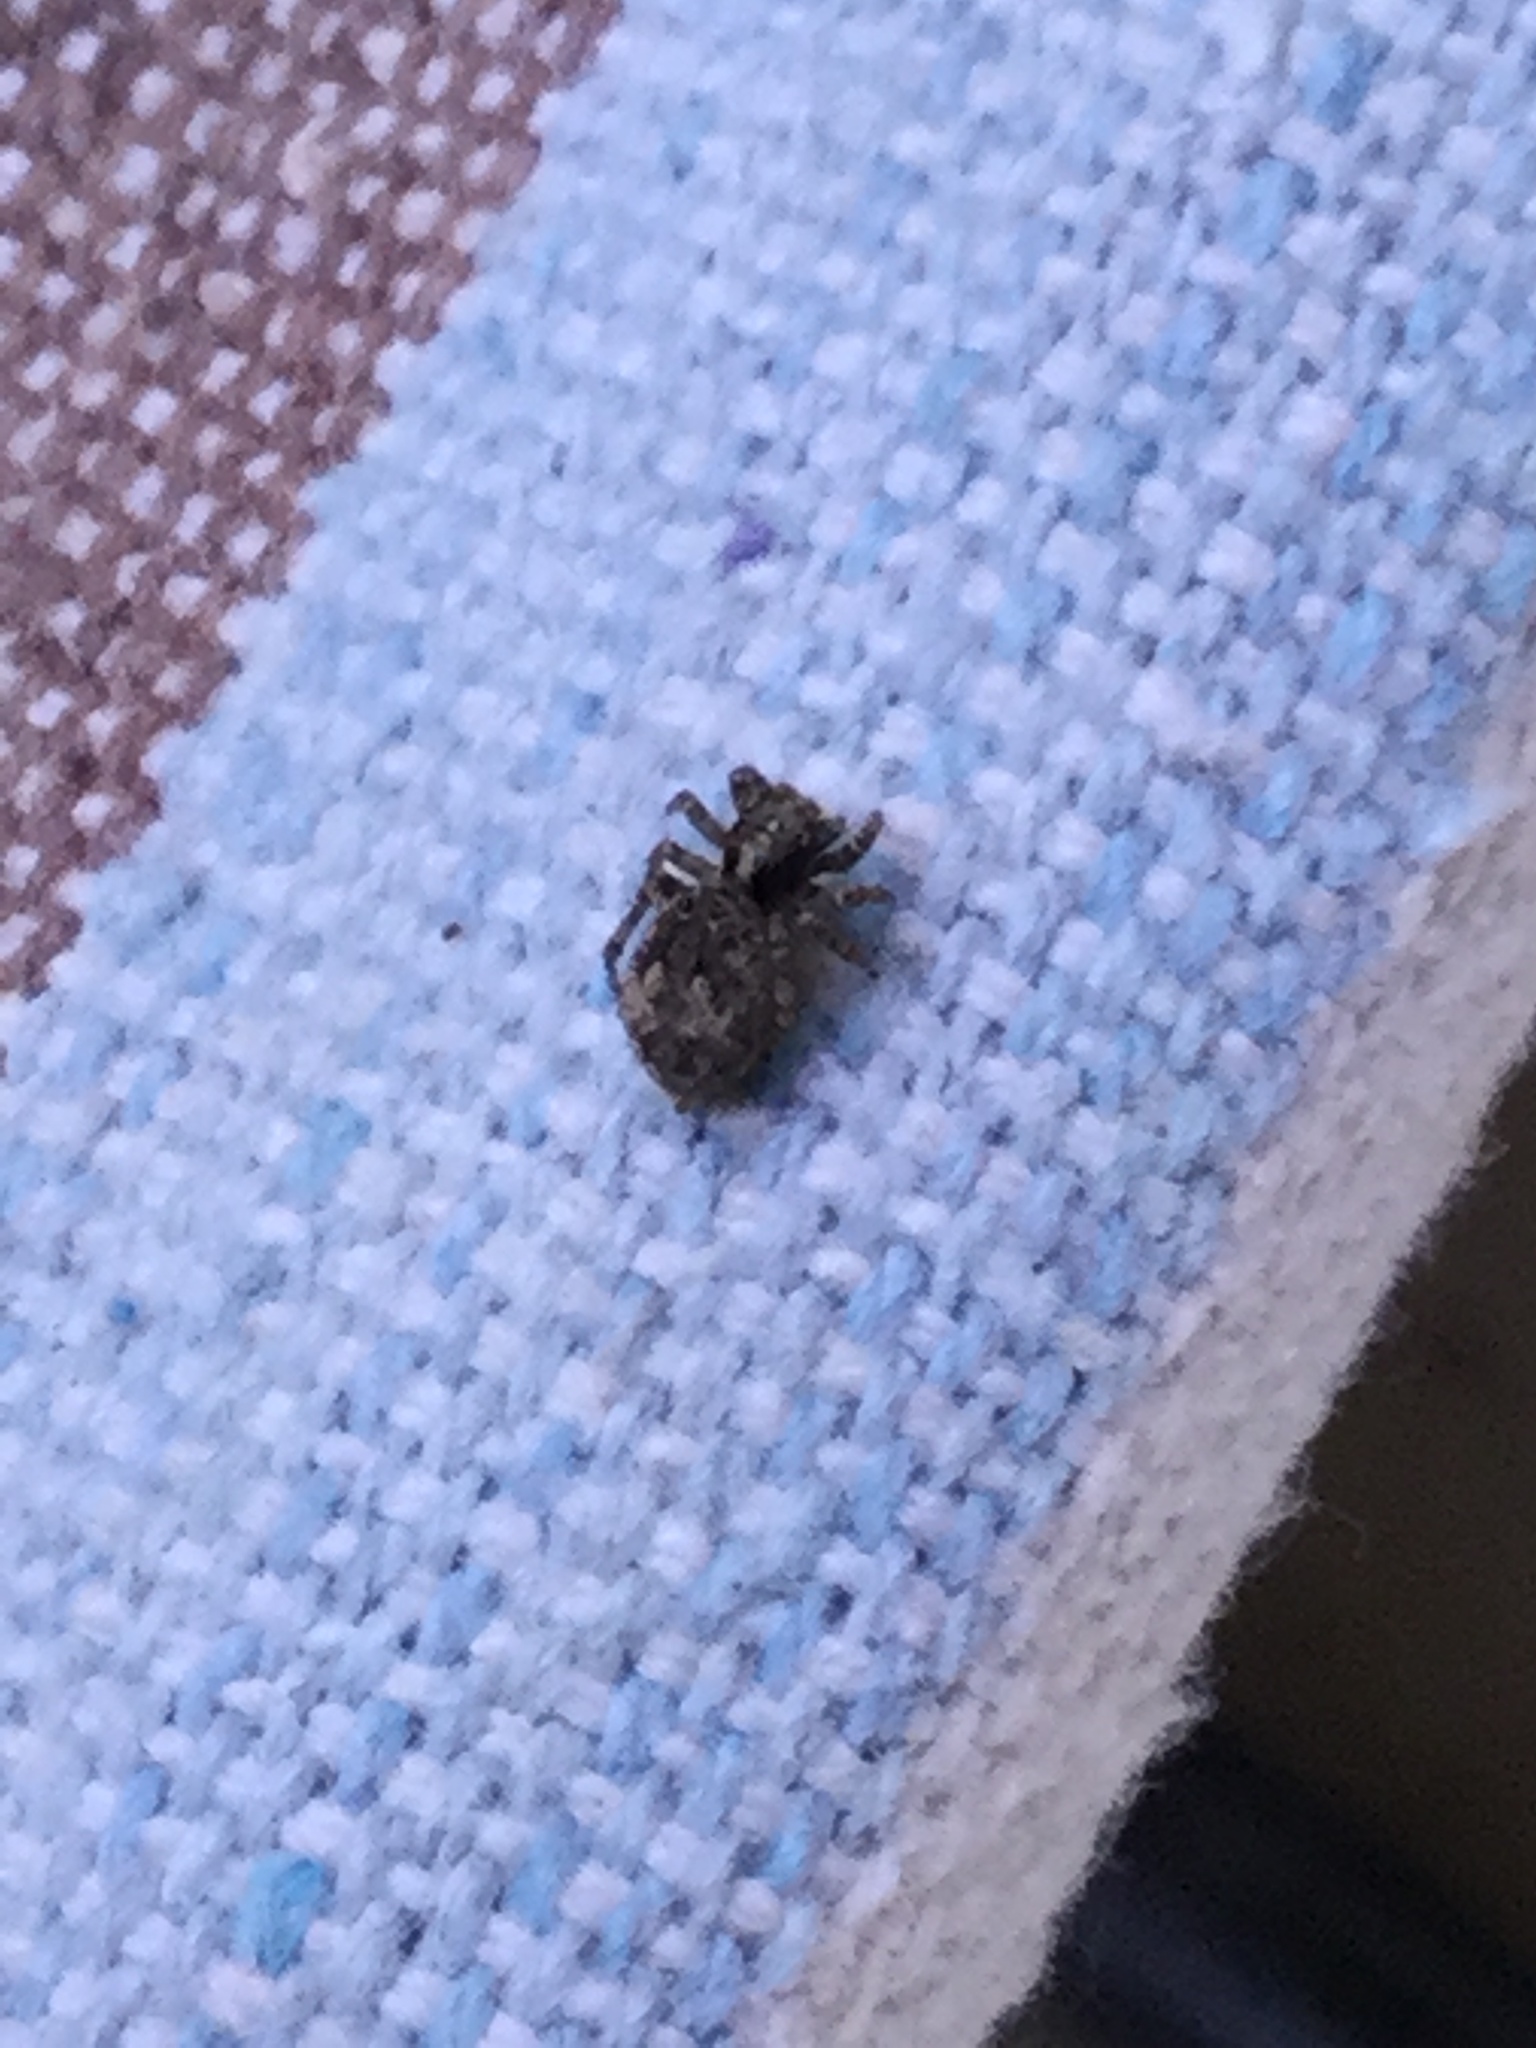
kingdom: Animalia
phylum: Arthropoda
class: Arachnida
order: Araneae
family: Salticidae
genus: Attulus
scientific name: Attulus fasciger
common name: Asiatic wall jumping spider
